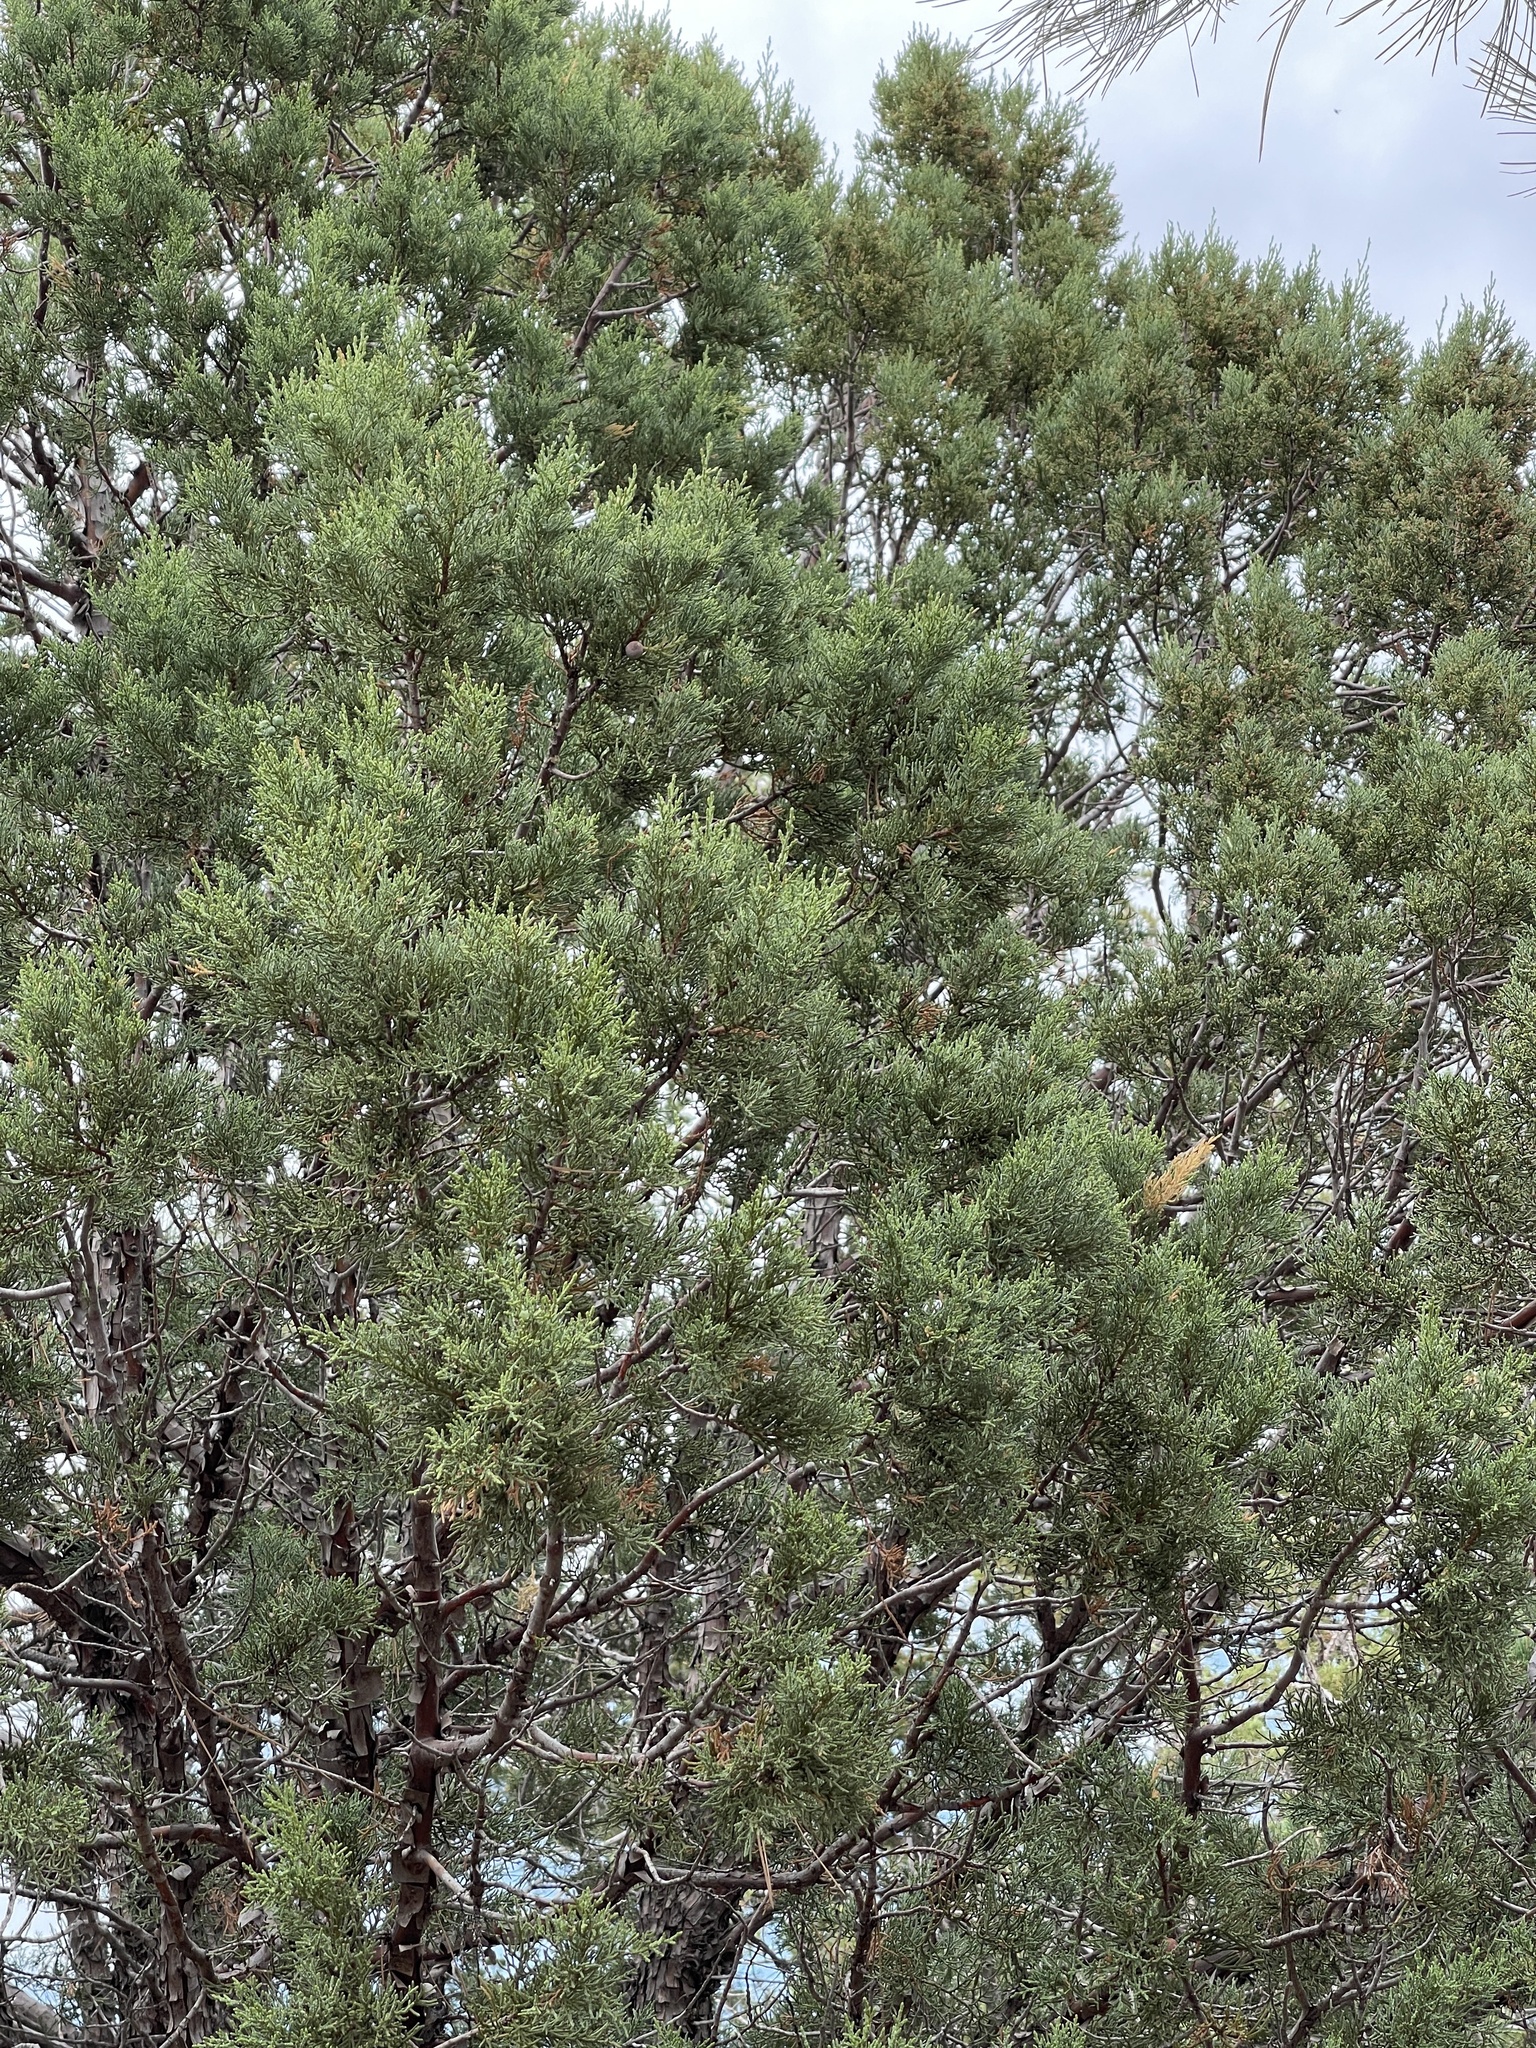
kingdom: Plantae
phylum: Tracheophyta
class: Pinopsida
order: Pinales
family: Cupressaceae
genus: Juniperus
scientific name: Juniperus deppeana
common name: Alligator juniper
